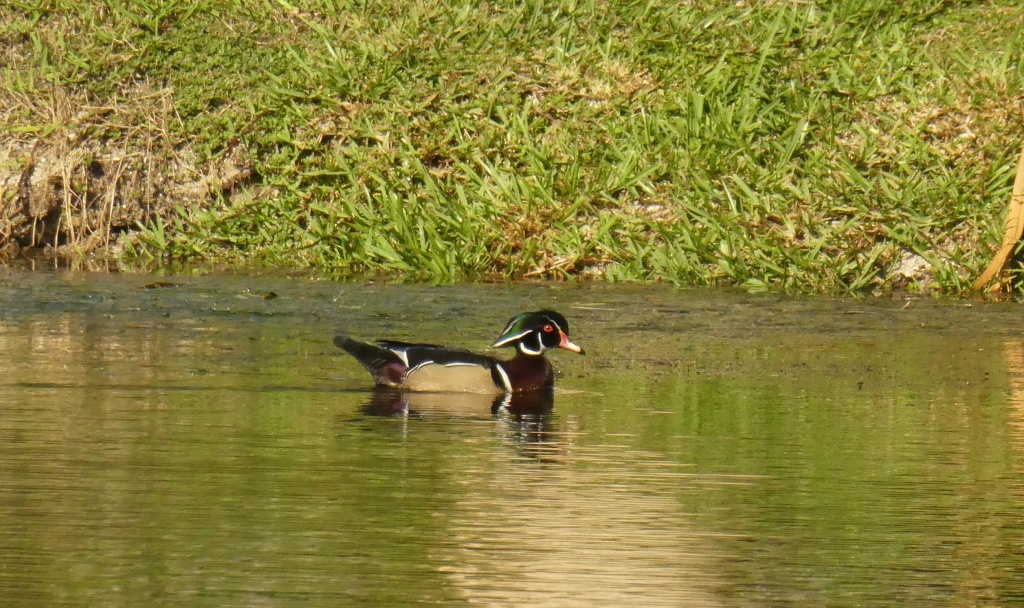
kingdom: Animalia
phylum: Chordata
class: Aves
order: Anseriformes
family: Anatidae
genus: Aix
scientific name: Aix sponsa
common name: Wood duck
